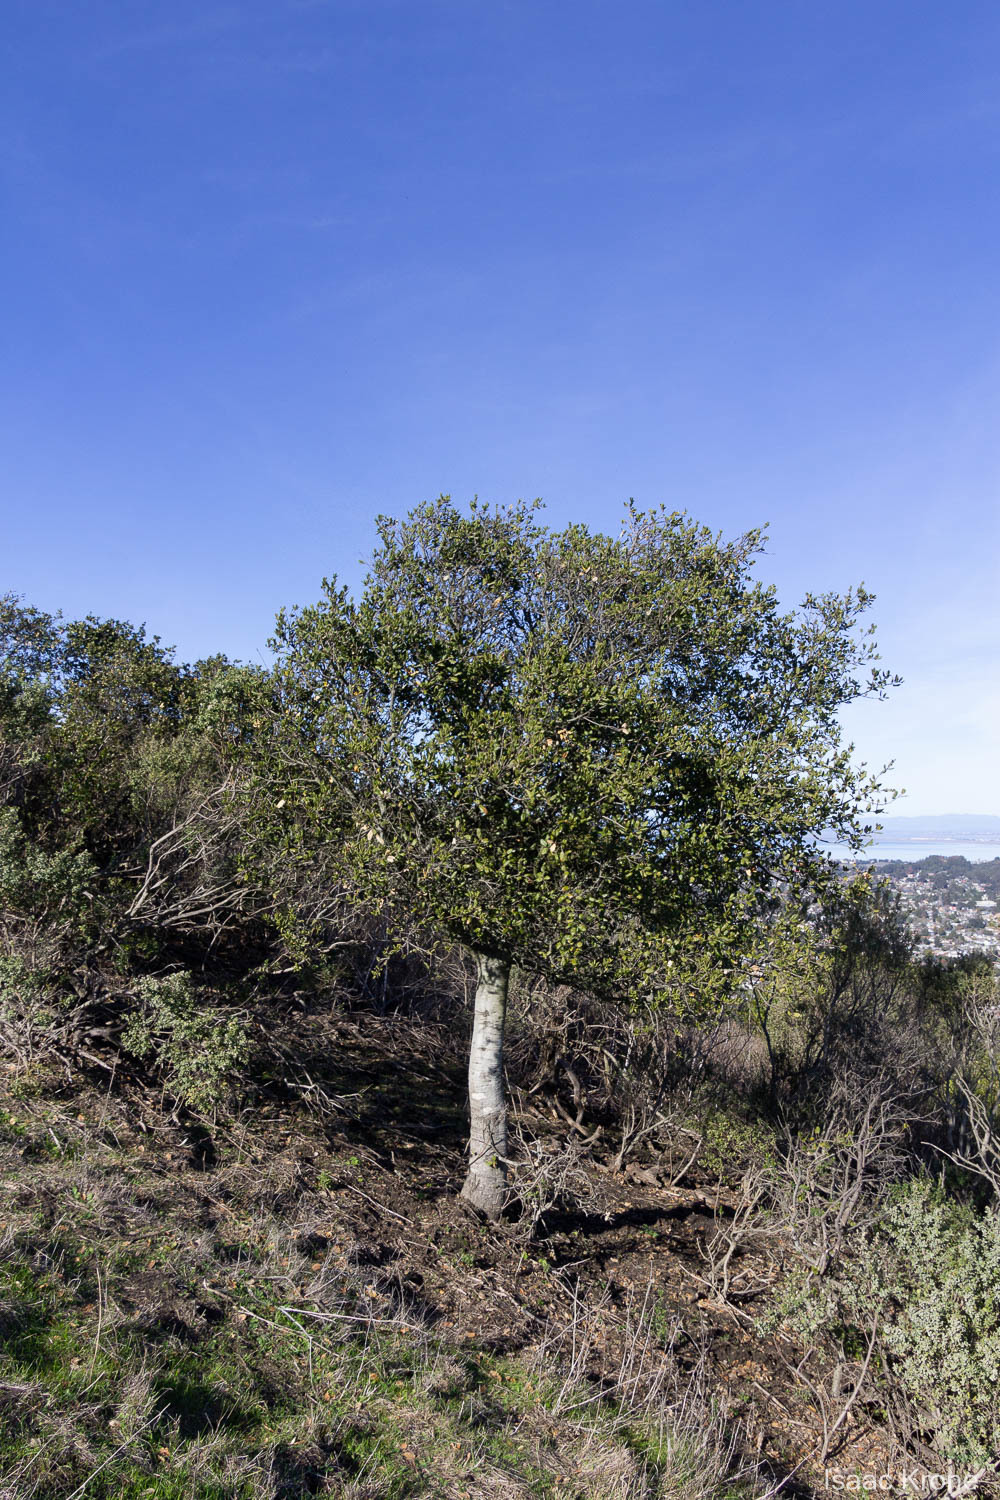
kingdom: Plantae
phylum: Tracheophyta
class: Magnoliopsida
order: Fagales
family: Fagaceae
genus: Quercus
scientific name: Quercus agrifolia
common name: California live oak
